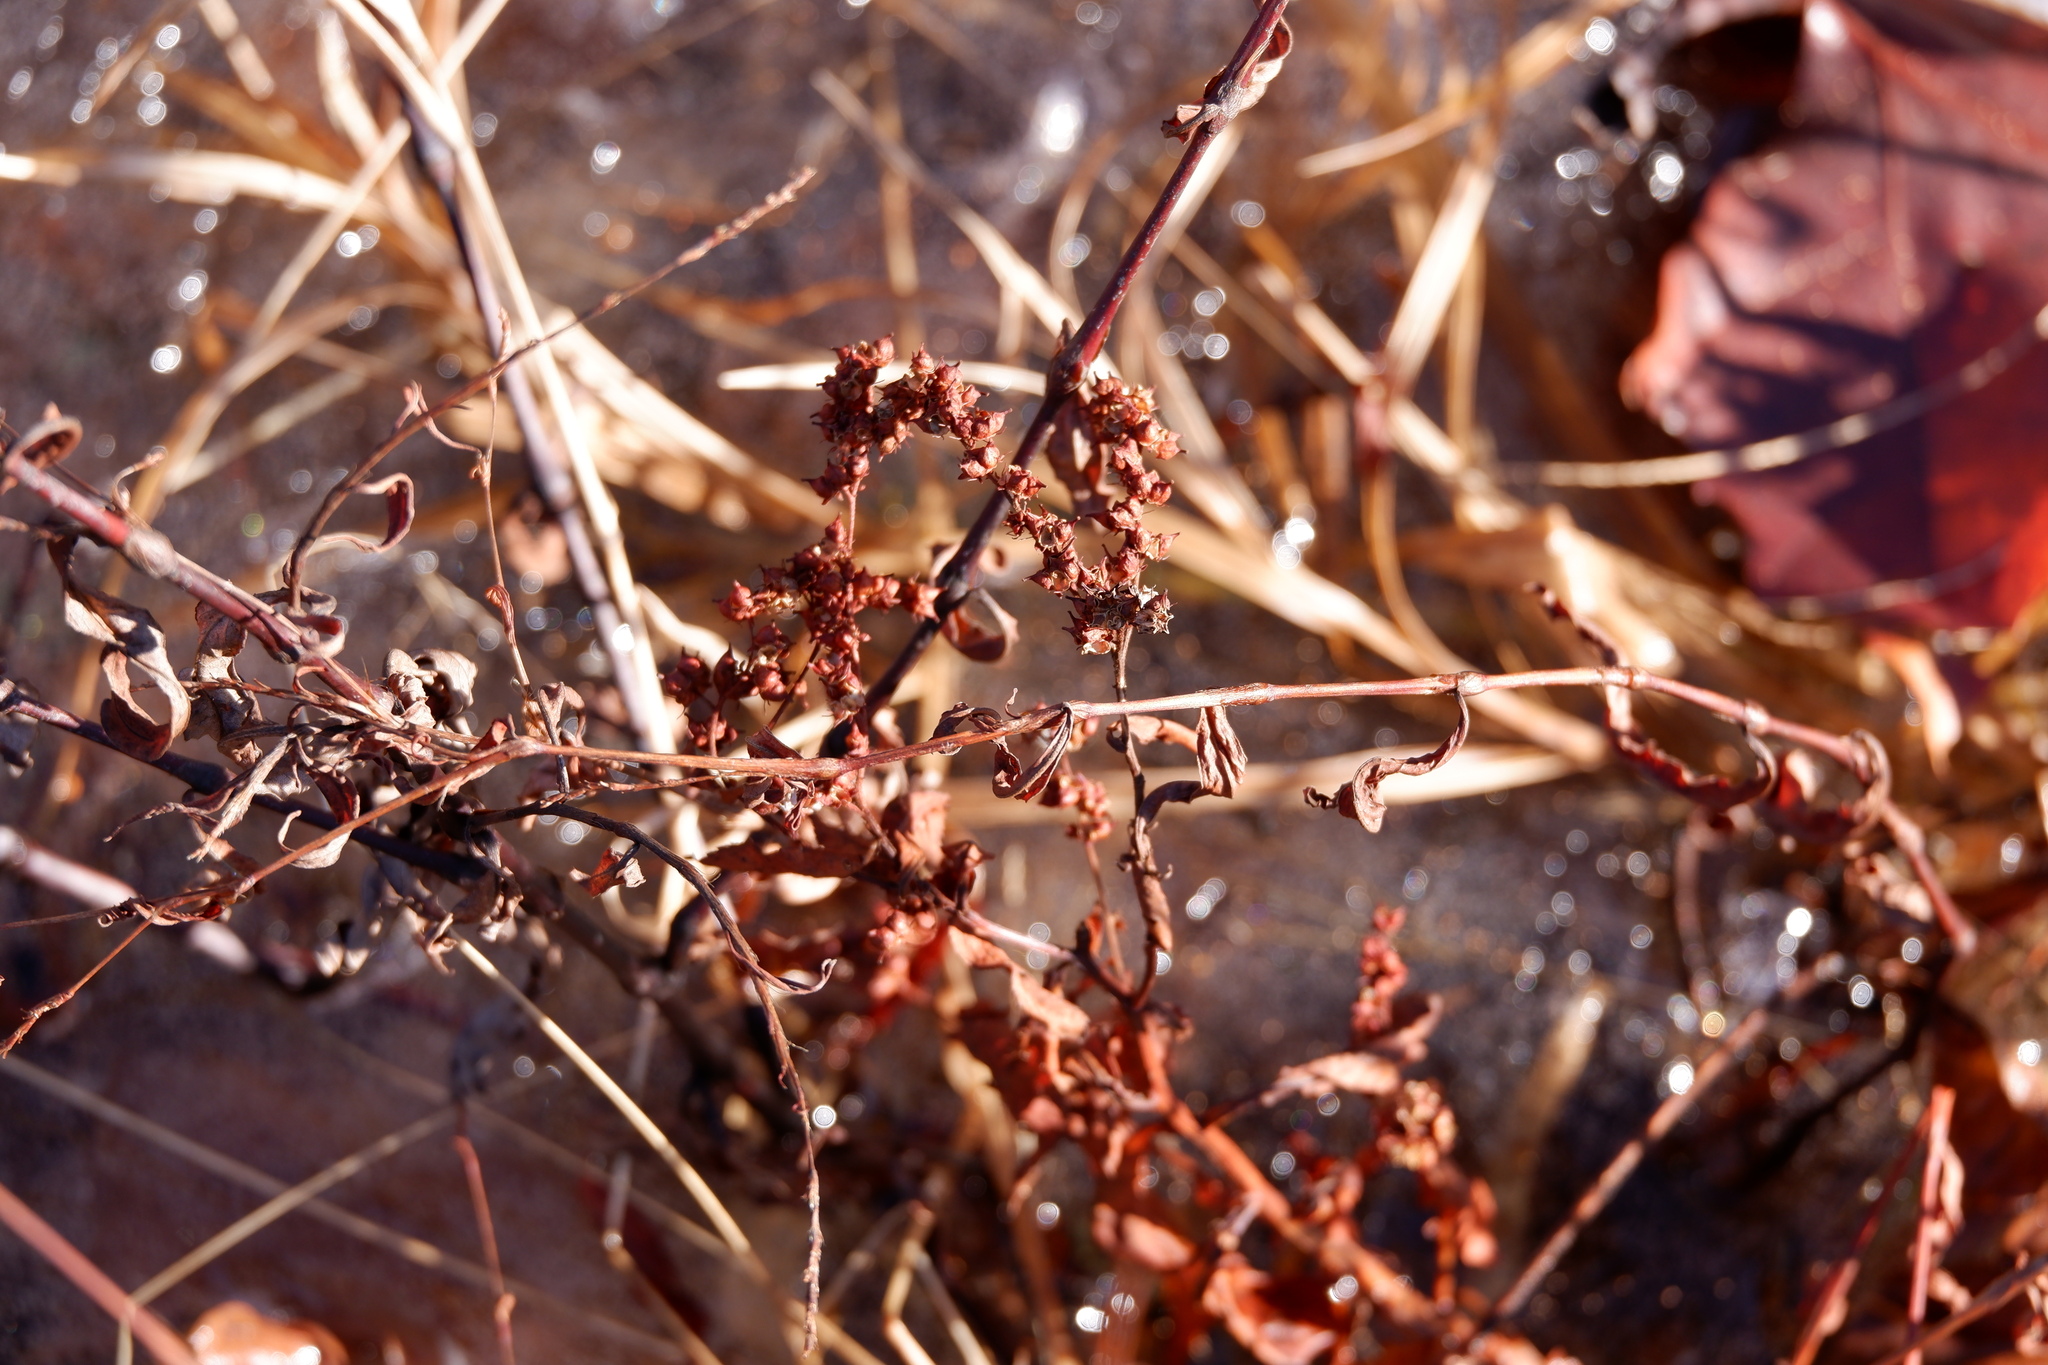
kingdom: Plantae
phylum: Tracheophyta
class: Magnoliopsida
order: Saxifragales
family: Penthoraceae
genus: Penthorum
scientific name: Penthorum sedoides
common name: Ditch stonecrop
